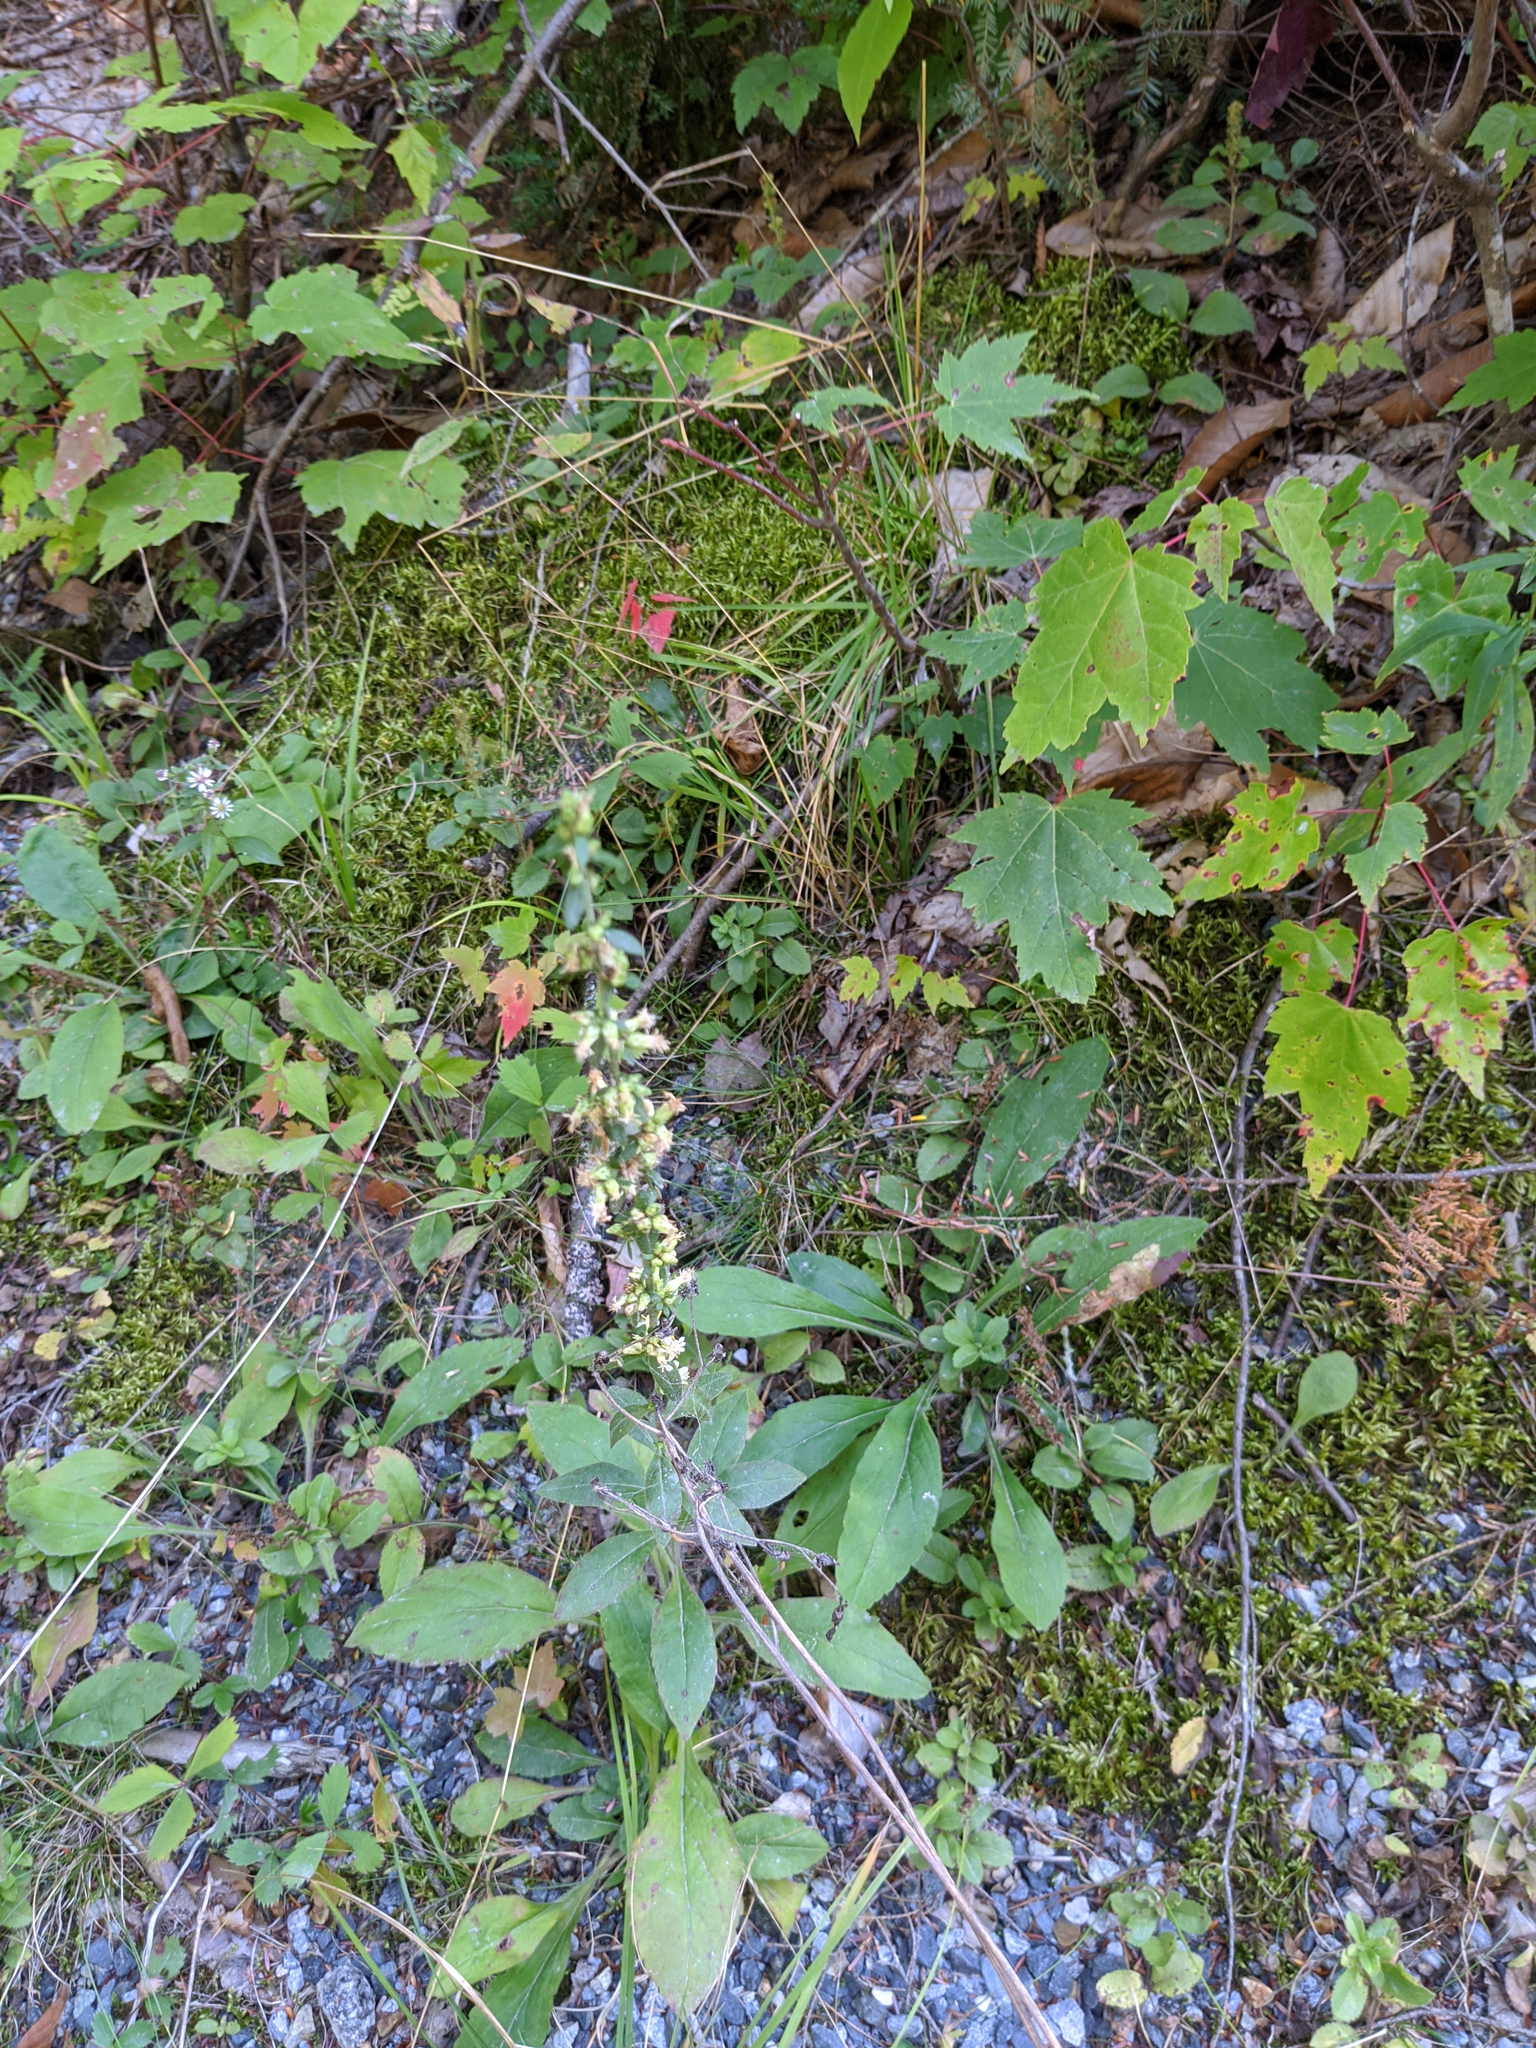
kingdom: Plantae
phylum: Tracheophyta
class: Magnoliopsida
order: Asterales
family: Asteraceae
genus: Solidago
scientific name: Solidago bicolor
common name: Silverrod
